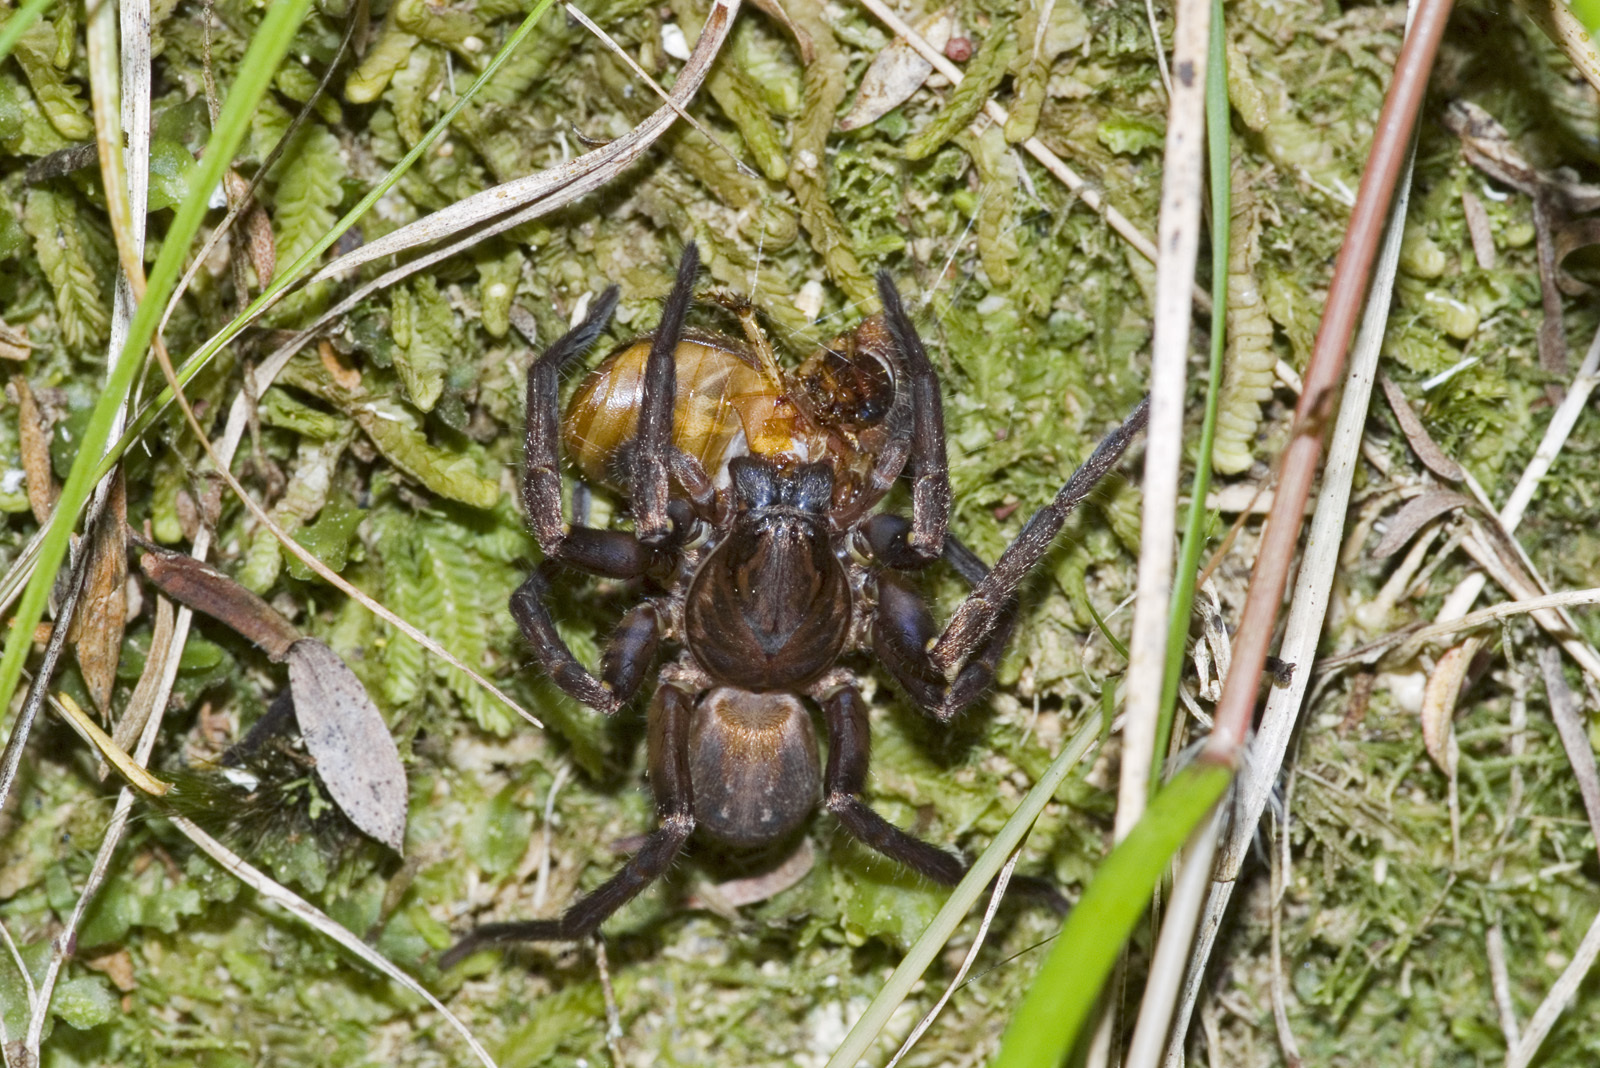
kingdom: Animalia
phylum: Arthropoda
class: Arachnida
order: Araneae
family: Zoropsidae
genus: Uliodon
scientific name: Uliodon albopunctatus
